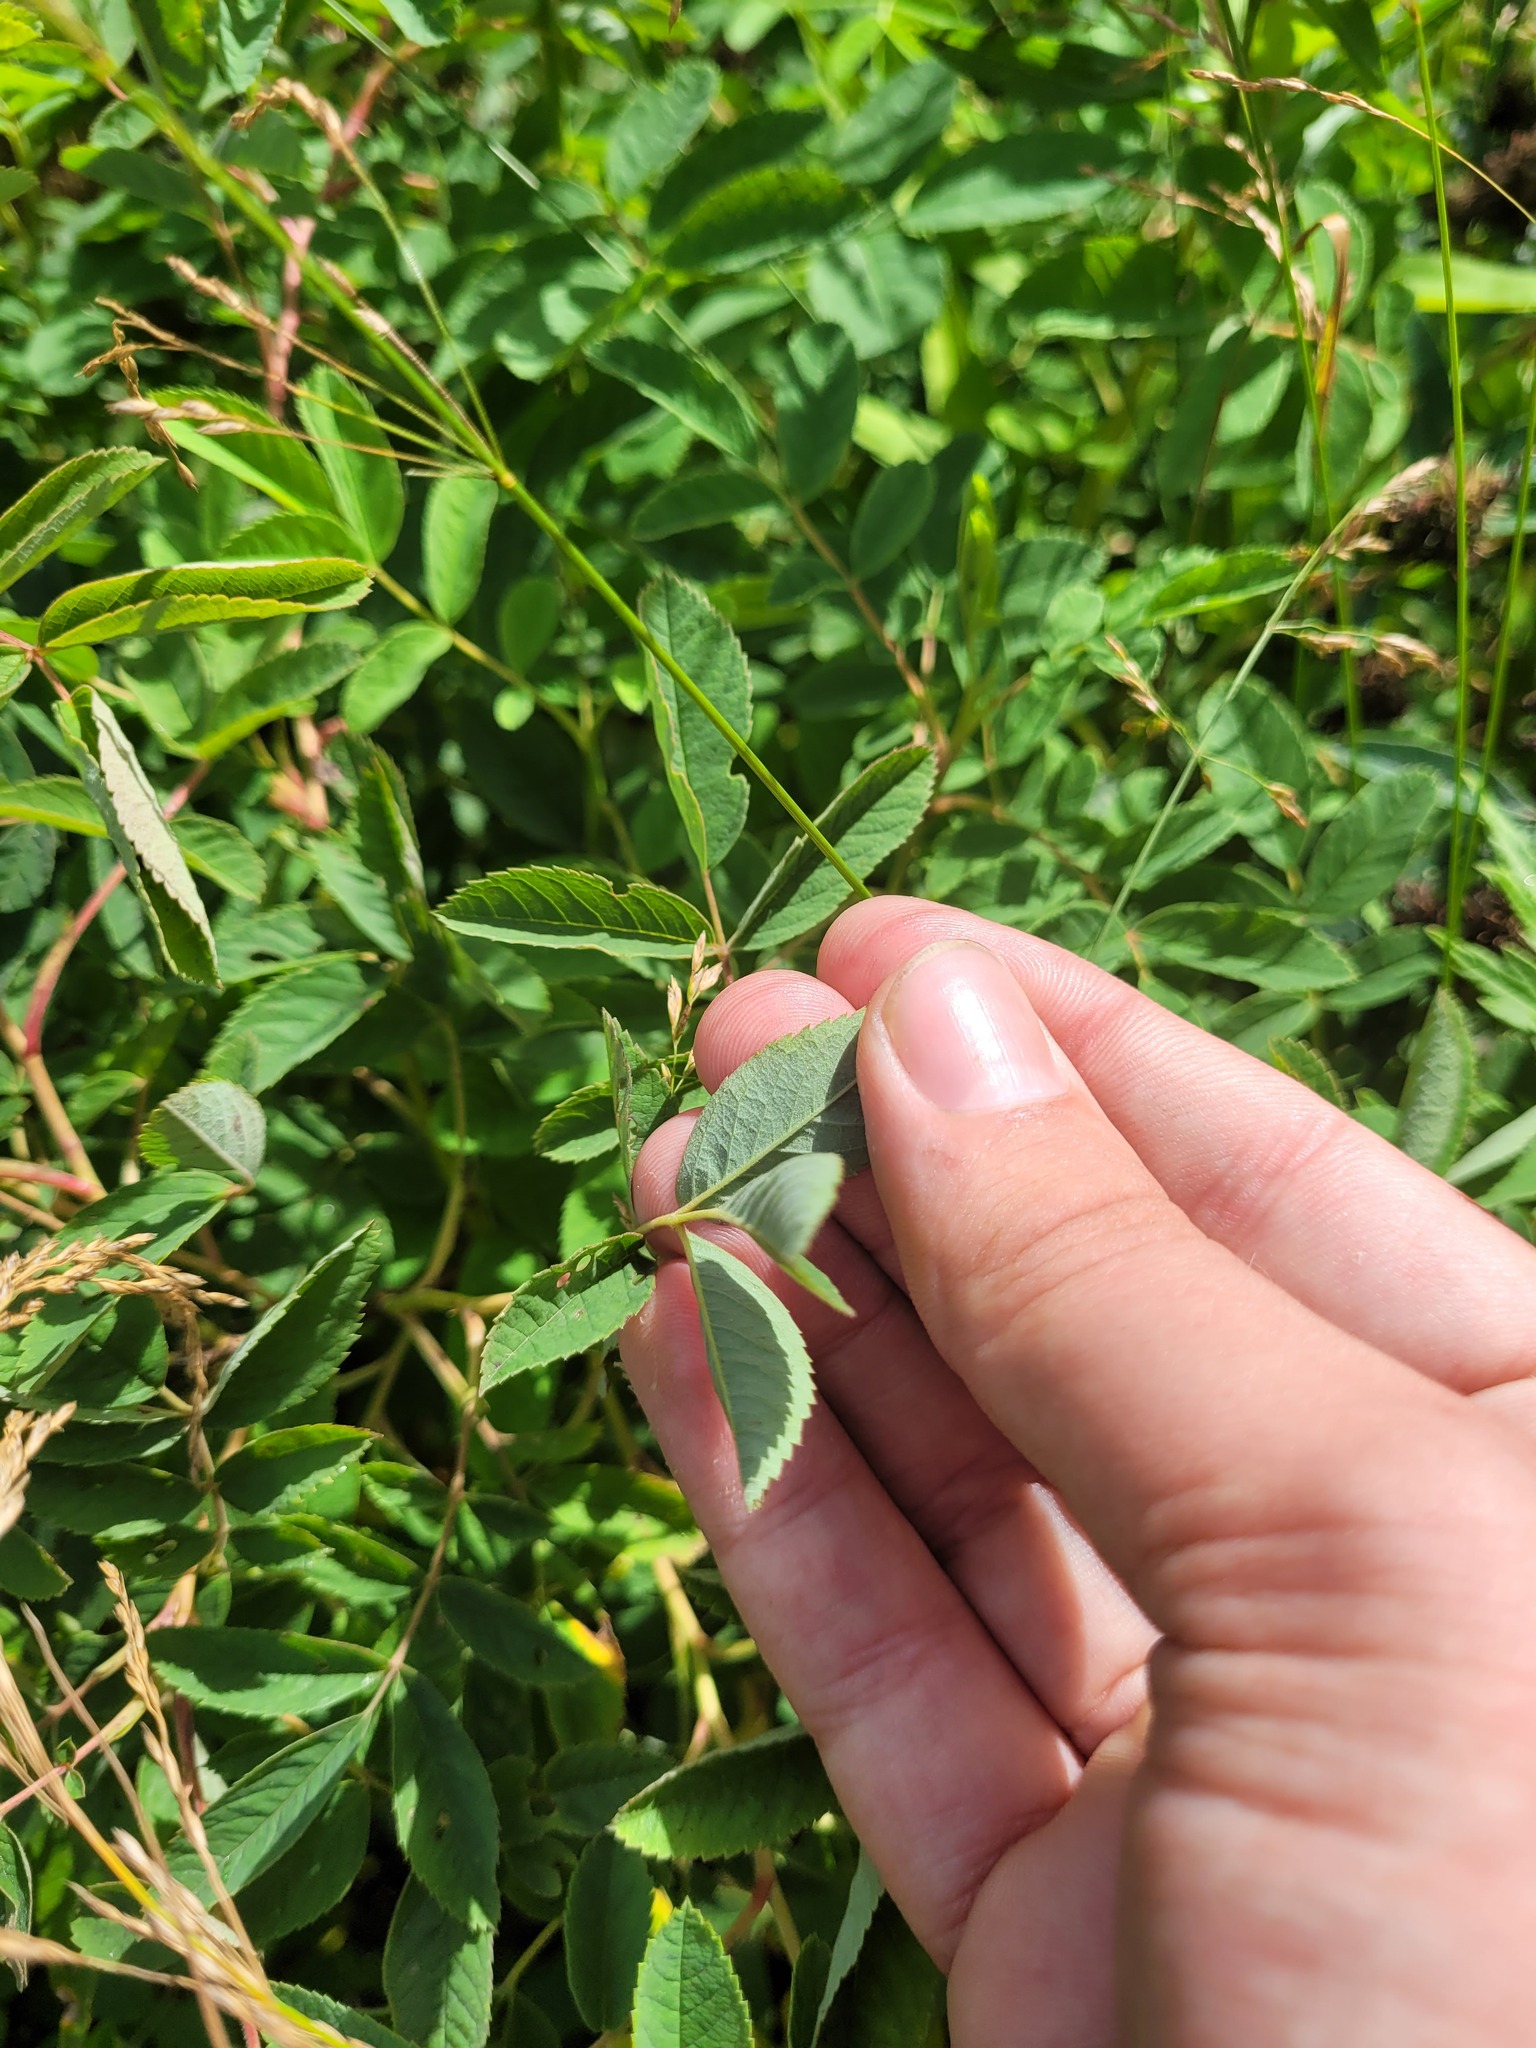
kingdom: Plantae
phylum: Tracheophyta
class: Magnoliopsida
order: Rosales
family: Rosaceae
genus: Rosa
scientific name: Rosa majalis
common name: Cinnamon rose
